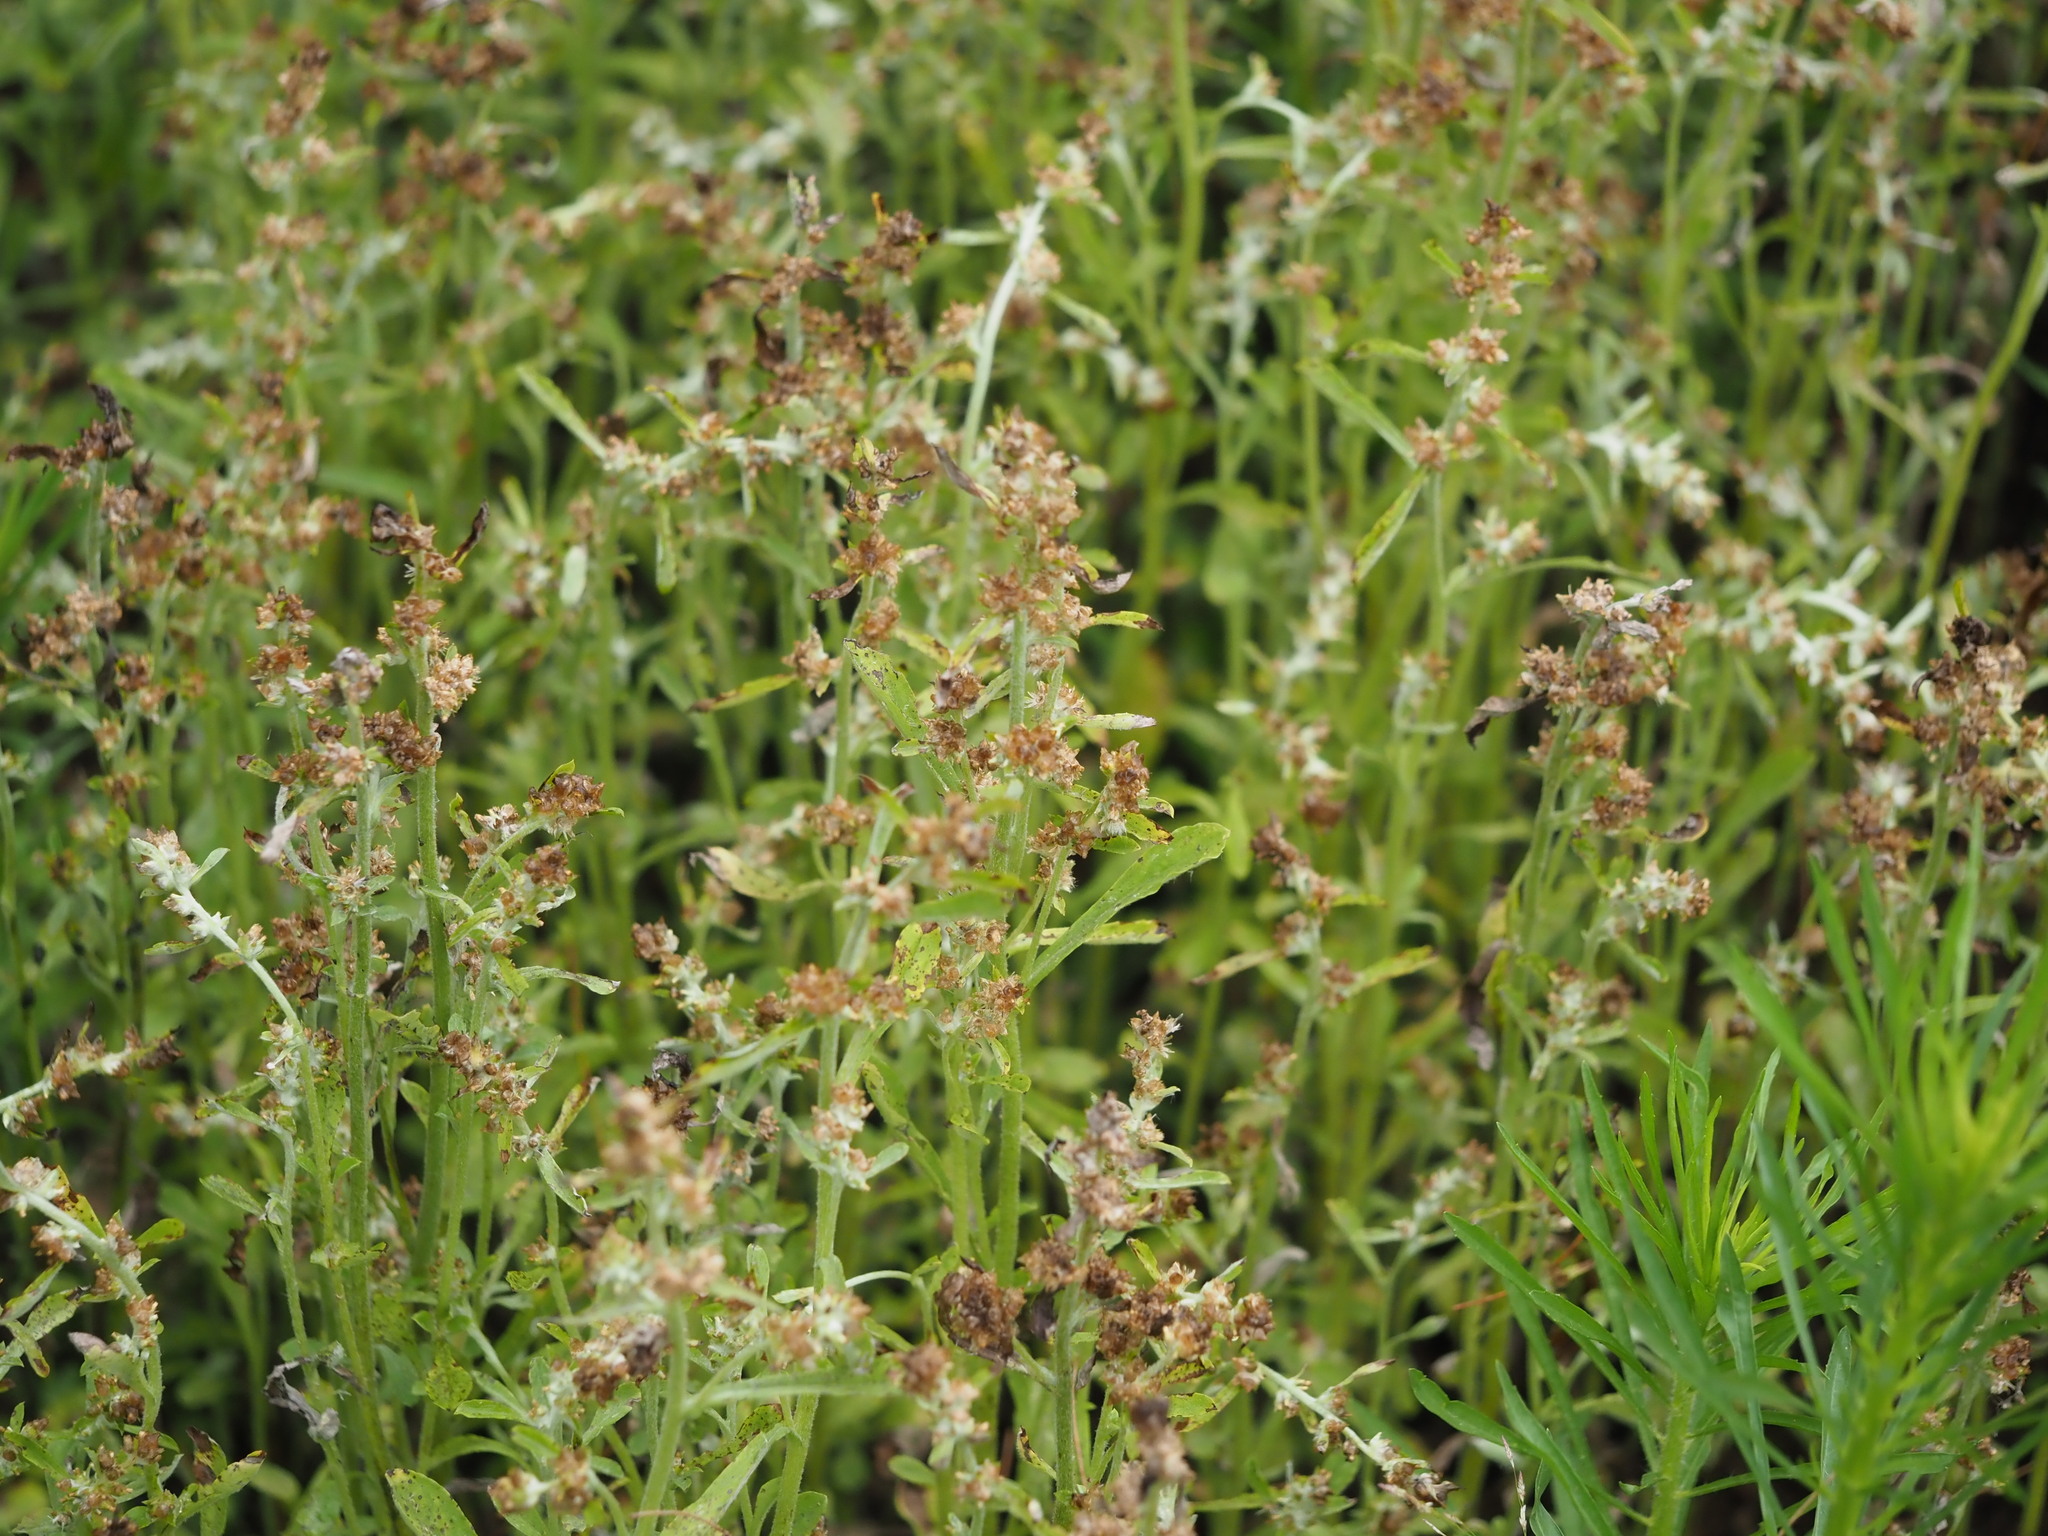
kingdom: Plantae
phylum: Tracheophyta
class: Magnoliopsida
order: Asterales
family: Asteraceae
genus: Gamochaeta
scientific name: Gamochaeta pensylvanica
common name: Pennsylvania everlasting
